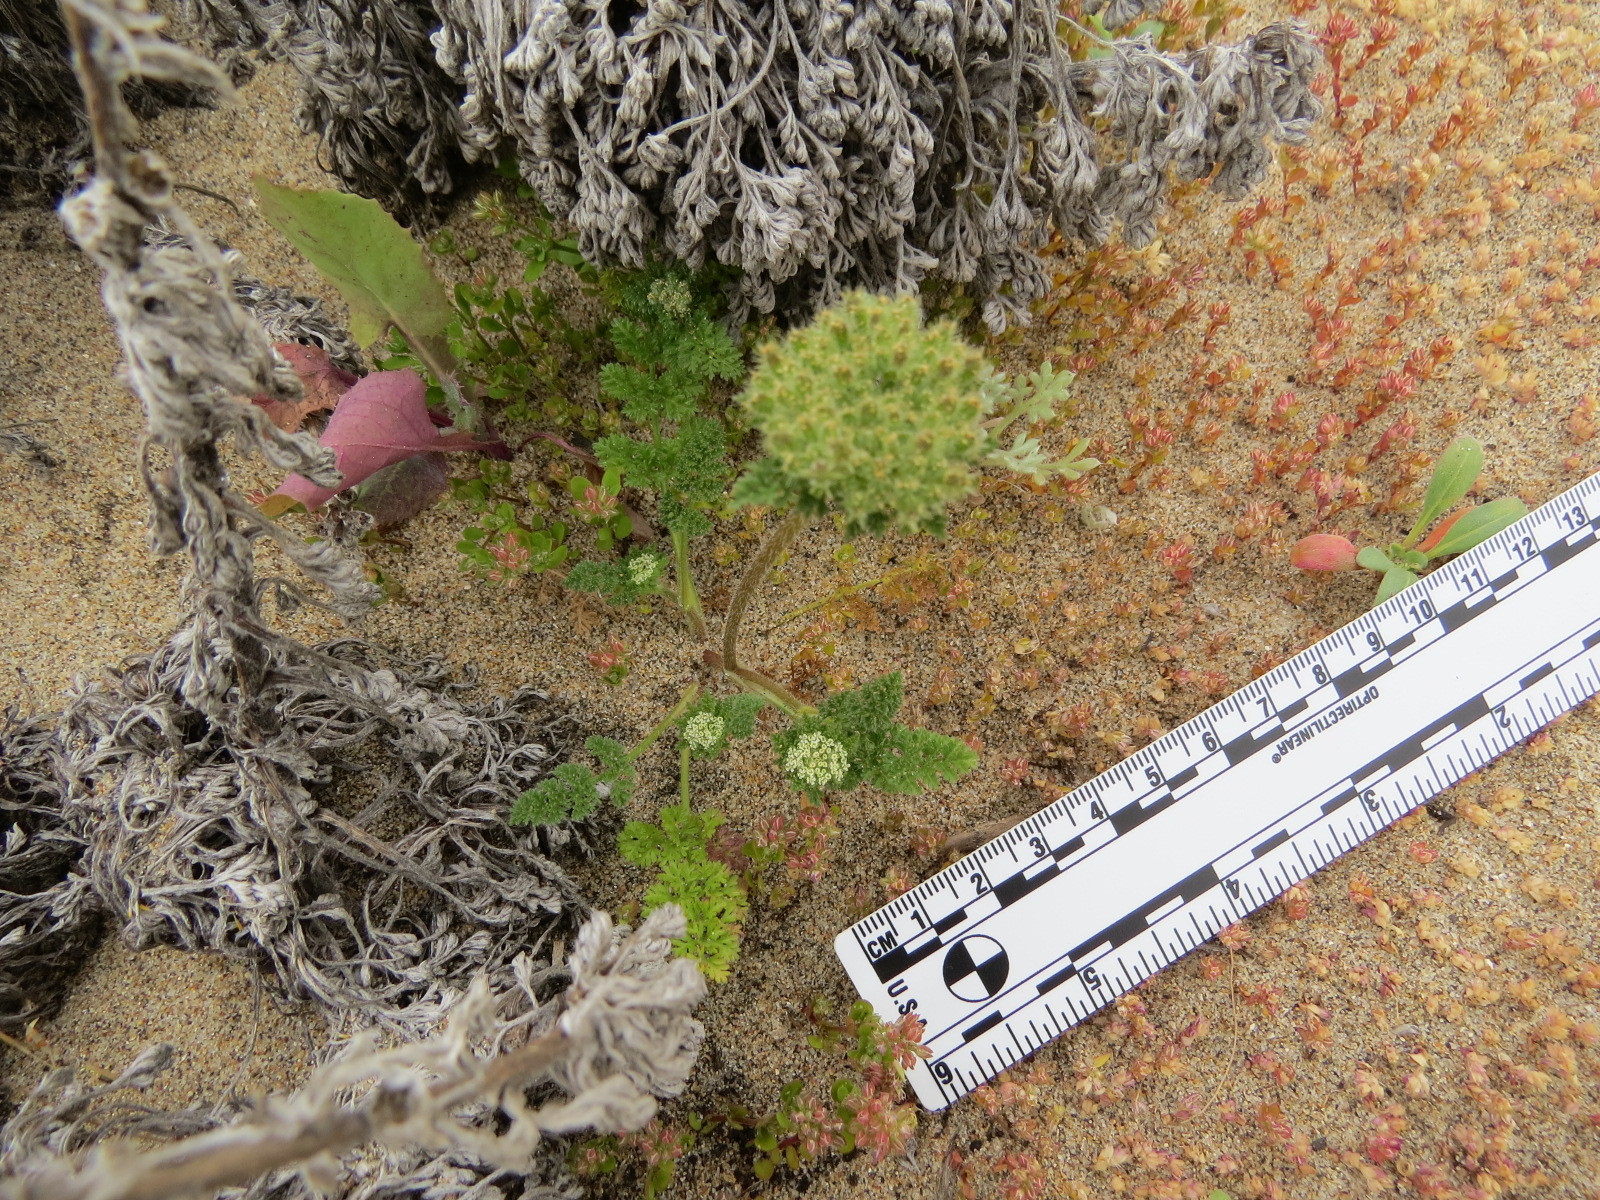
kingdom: Plantae
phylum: Tracheophyta
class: Magnoliopsida
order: Apiales
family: Apiaceae
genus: Daucus
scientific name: Daucus pusillus
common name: Southwest wild carrot
